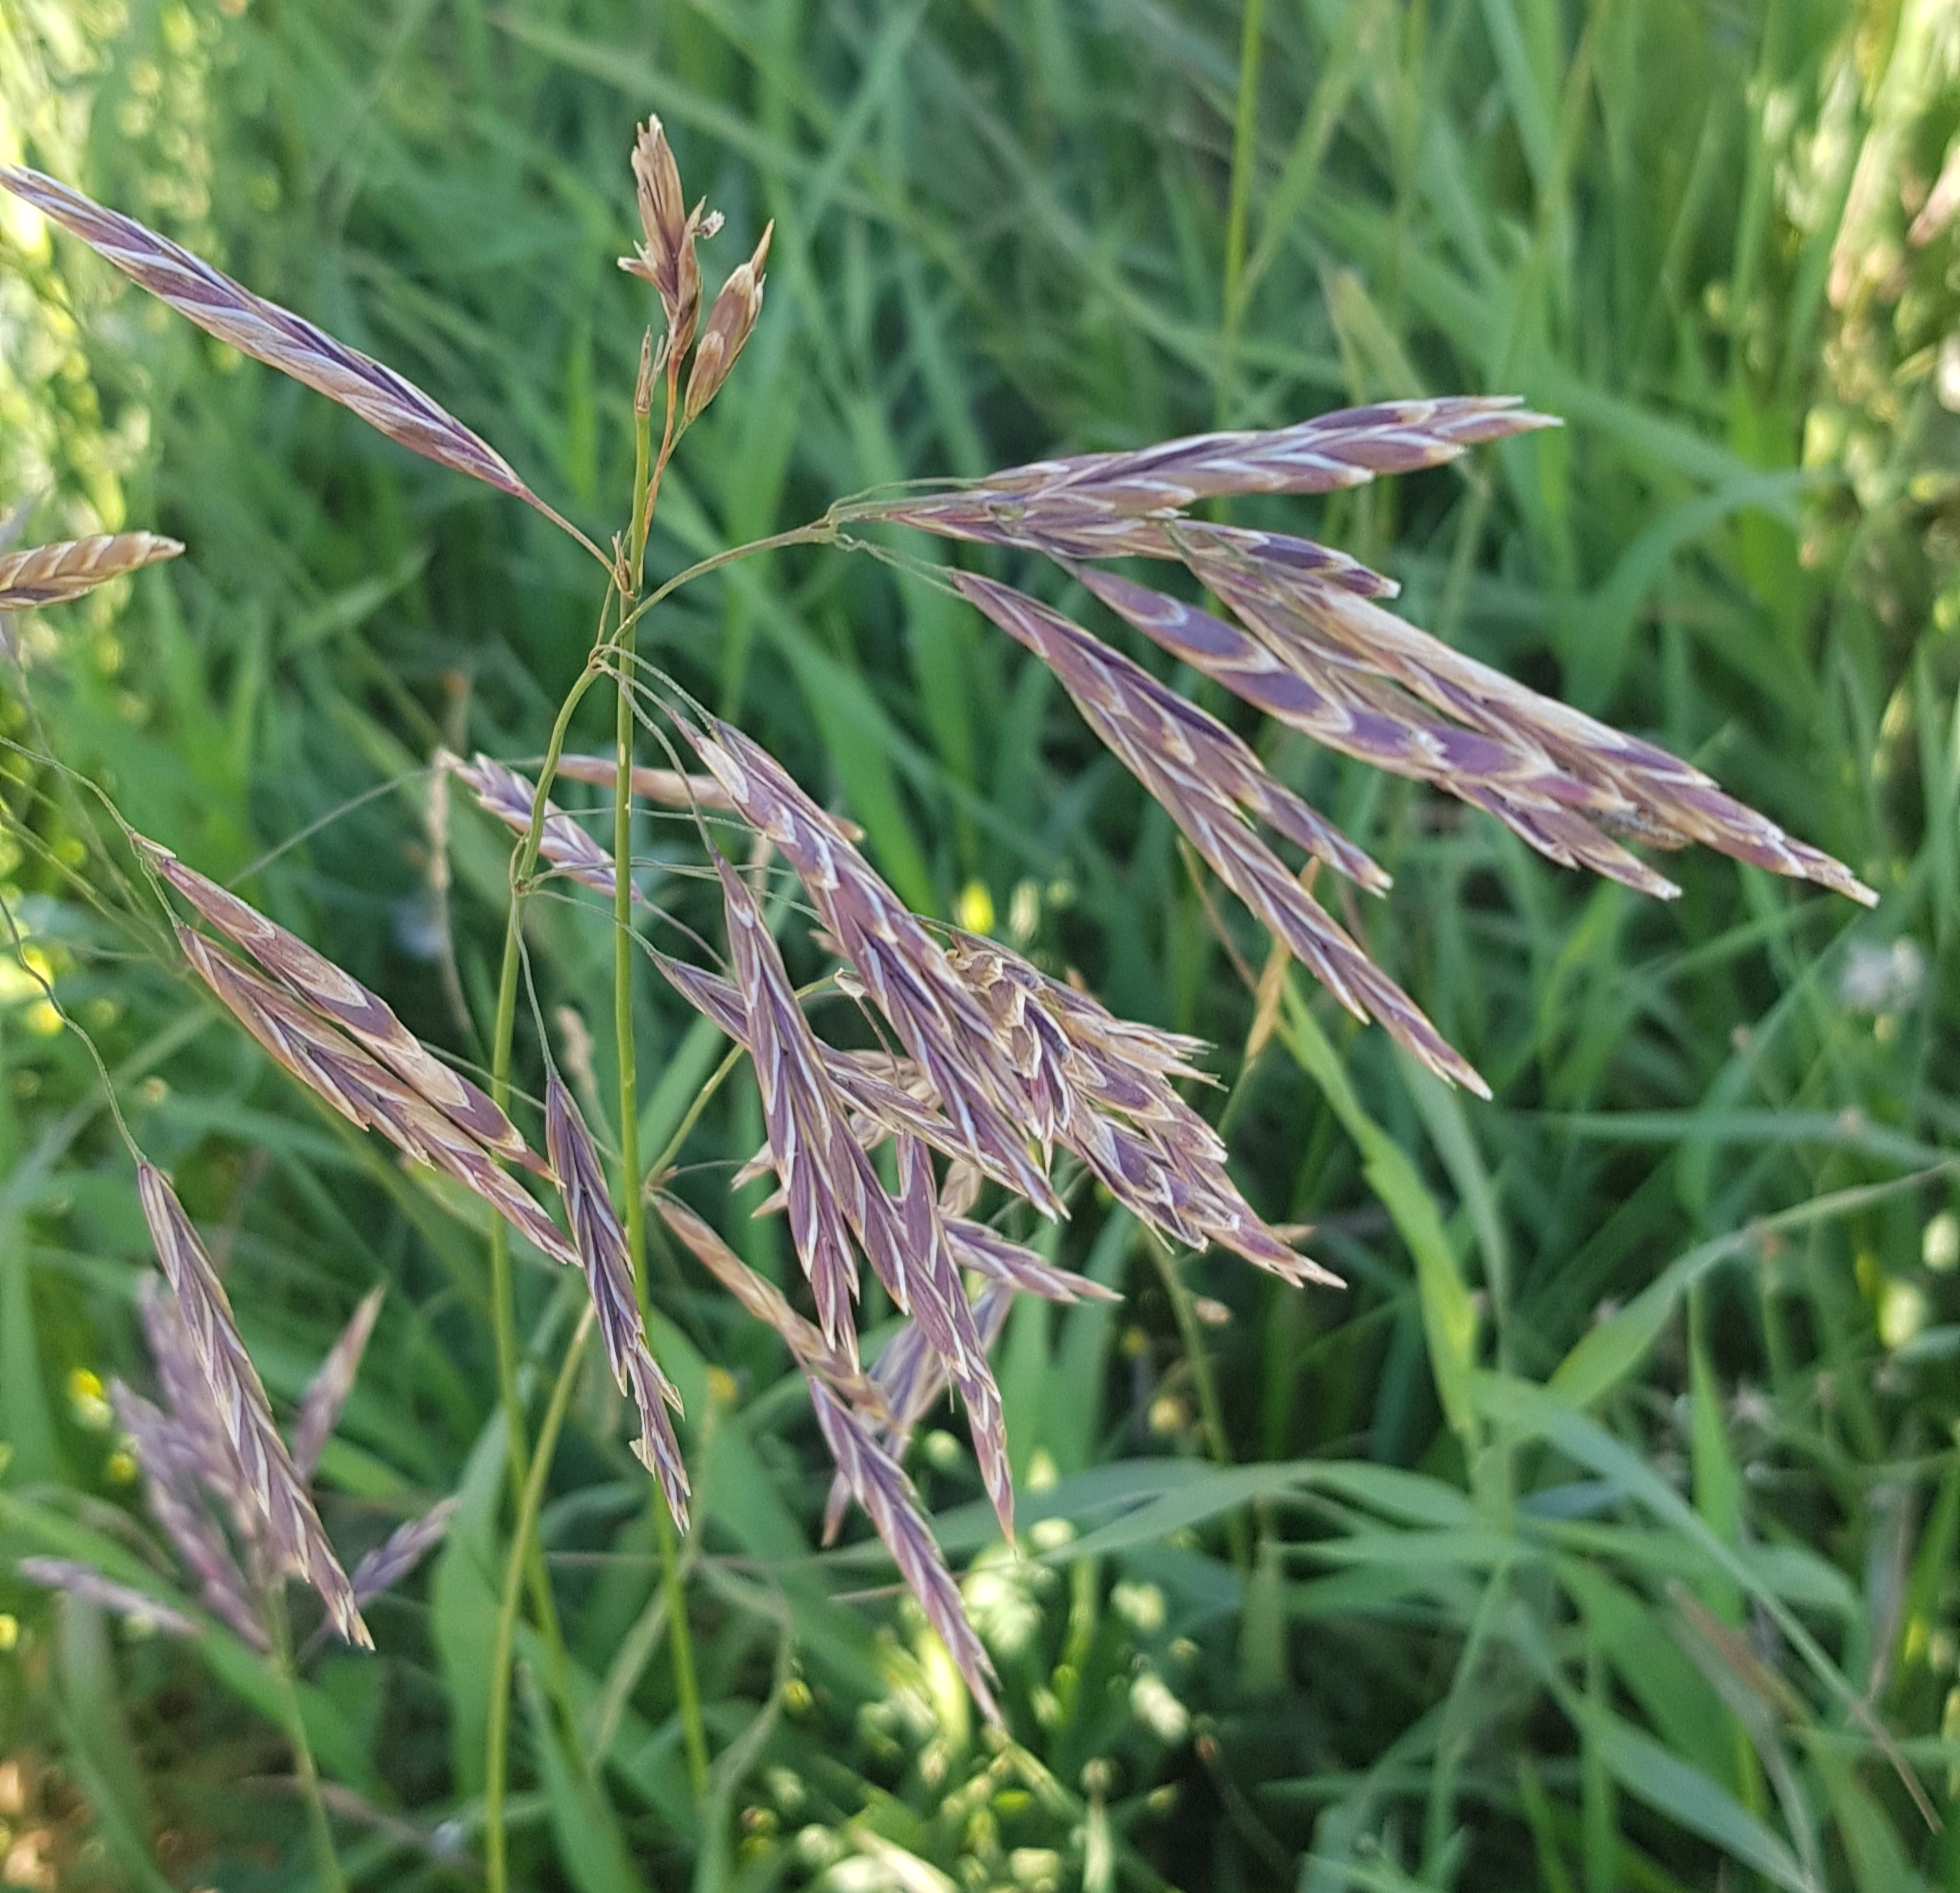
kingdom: Plantae
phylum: Tracheophyta
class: Liliopsida
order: Poales
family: Poaceae
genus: Bromus
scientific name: Bromus inermis
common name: Smooth brome
